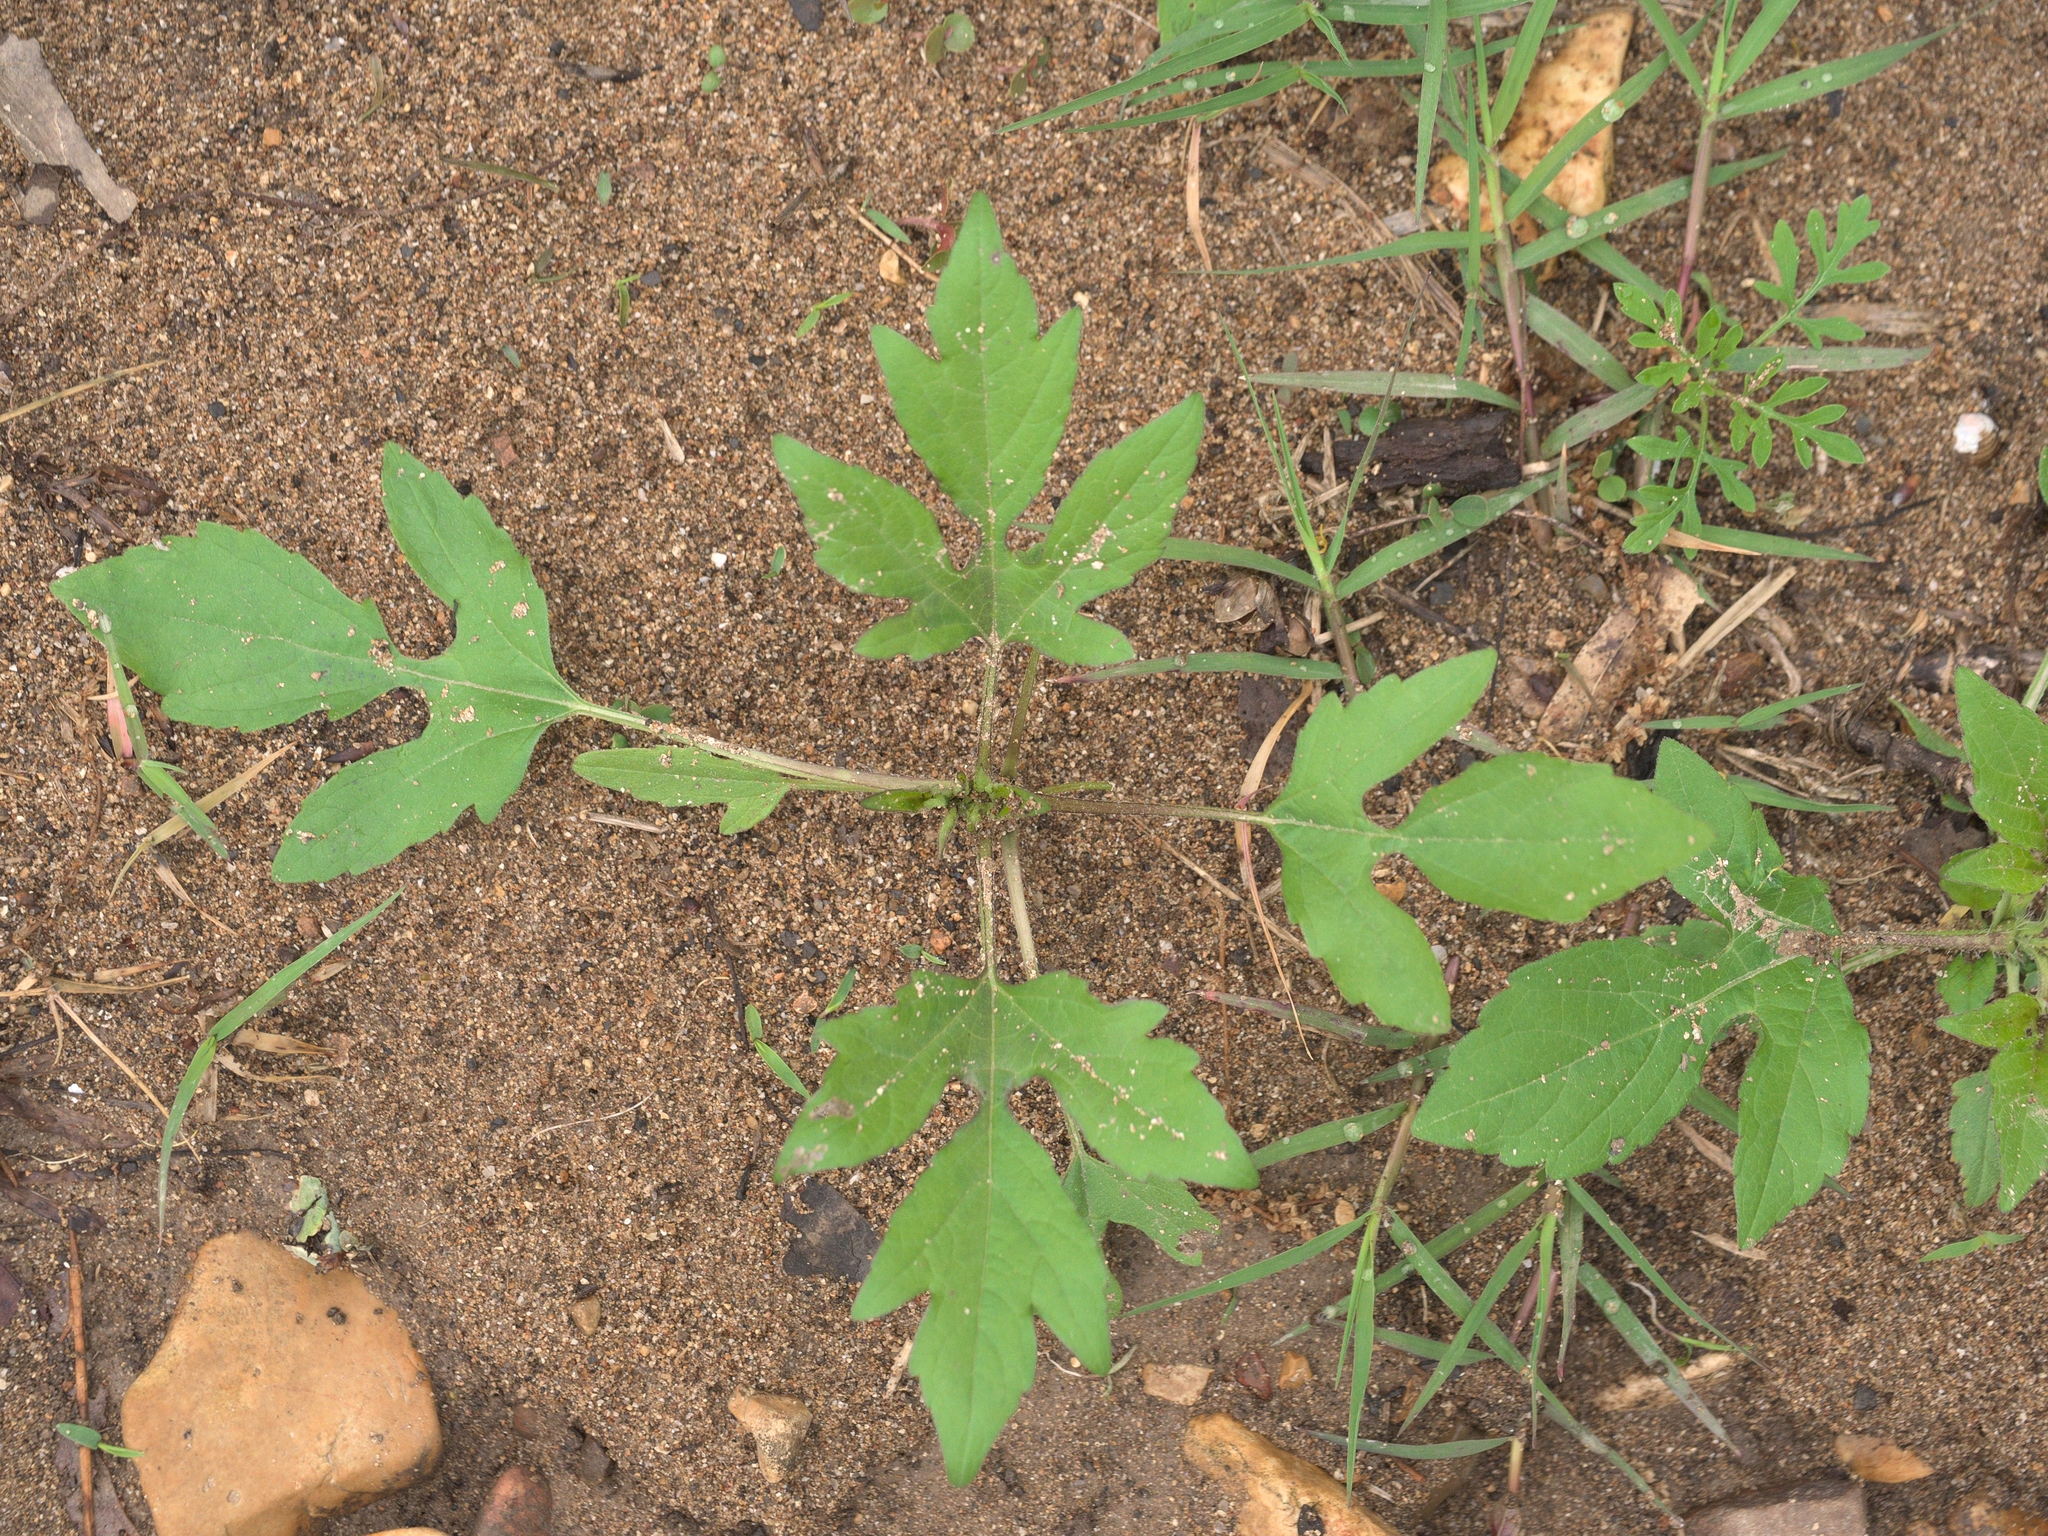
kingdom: Plantae
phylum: Tracheophyta
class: Magnoliopsida
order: Asterales
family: Asteraceae
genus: Ambrosia
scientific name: Ambrosia trifida
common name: Giant ragweed
